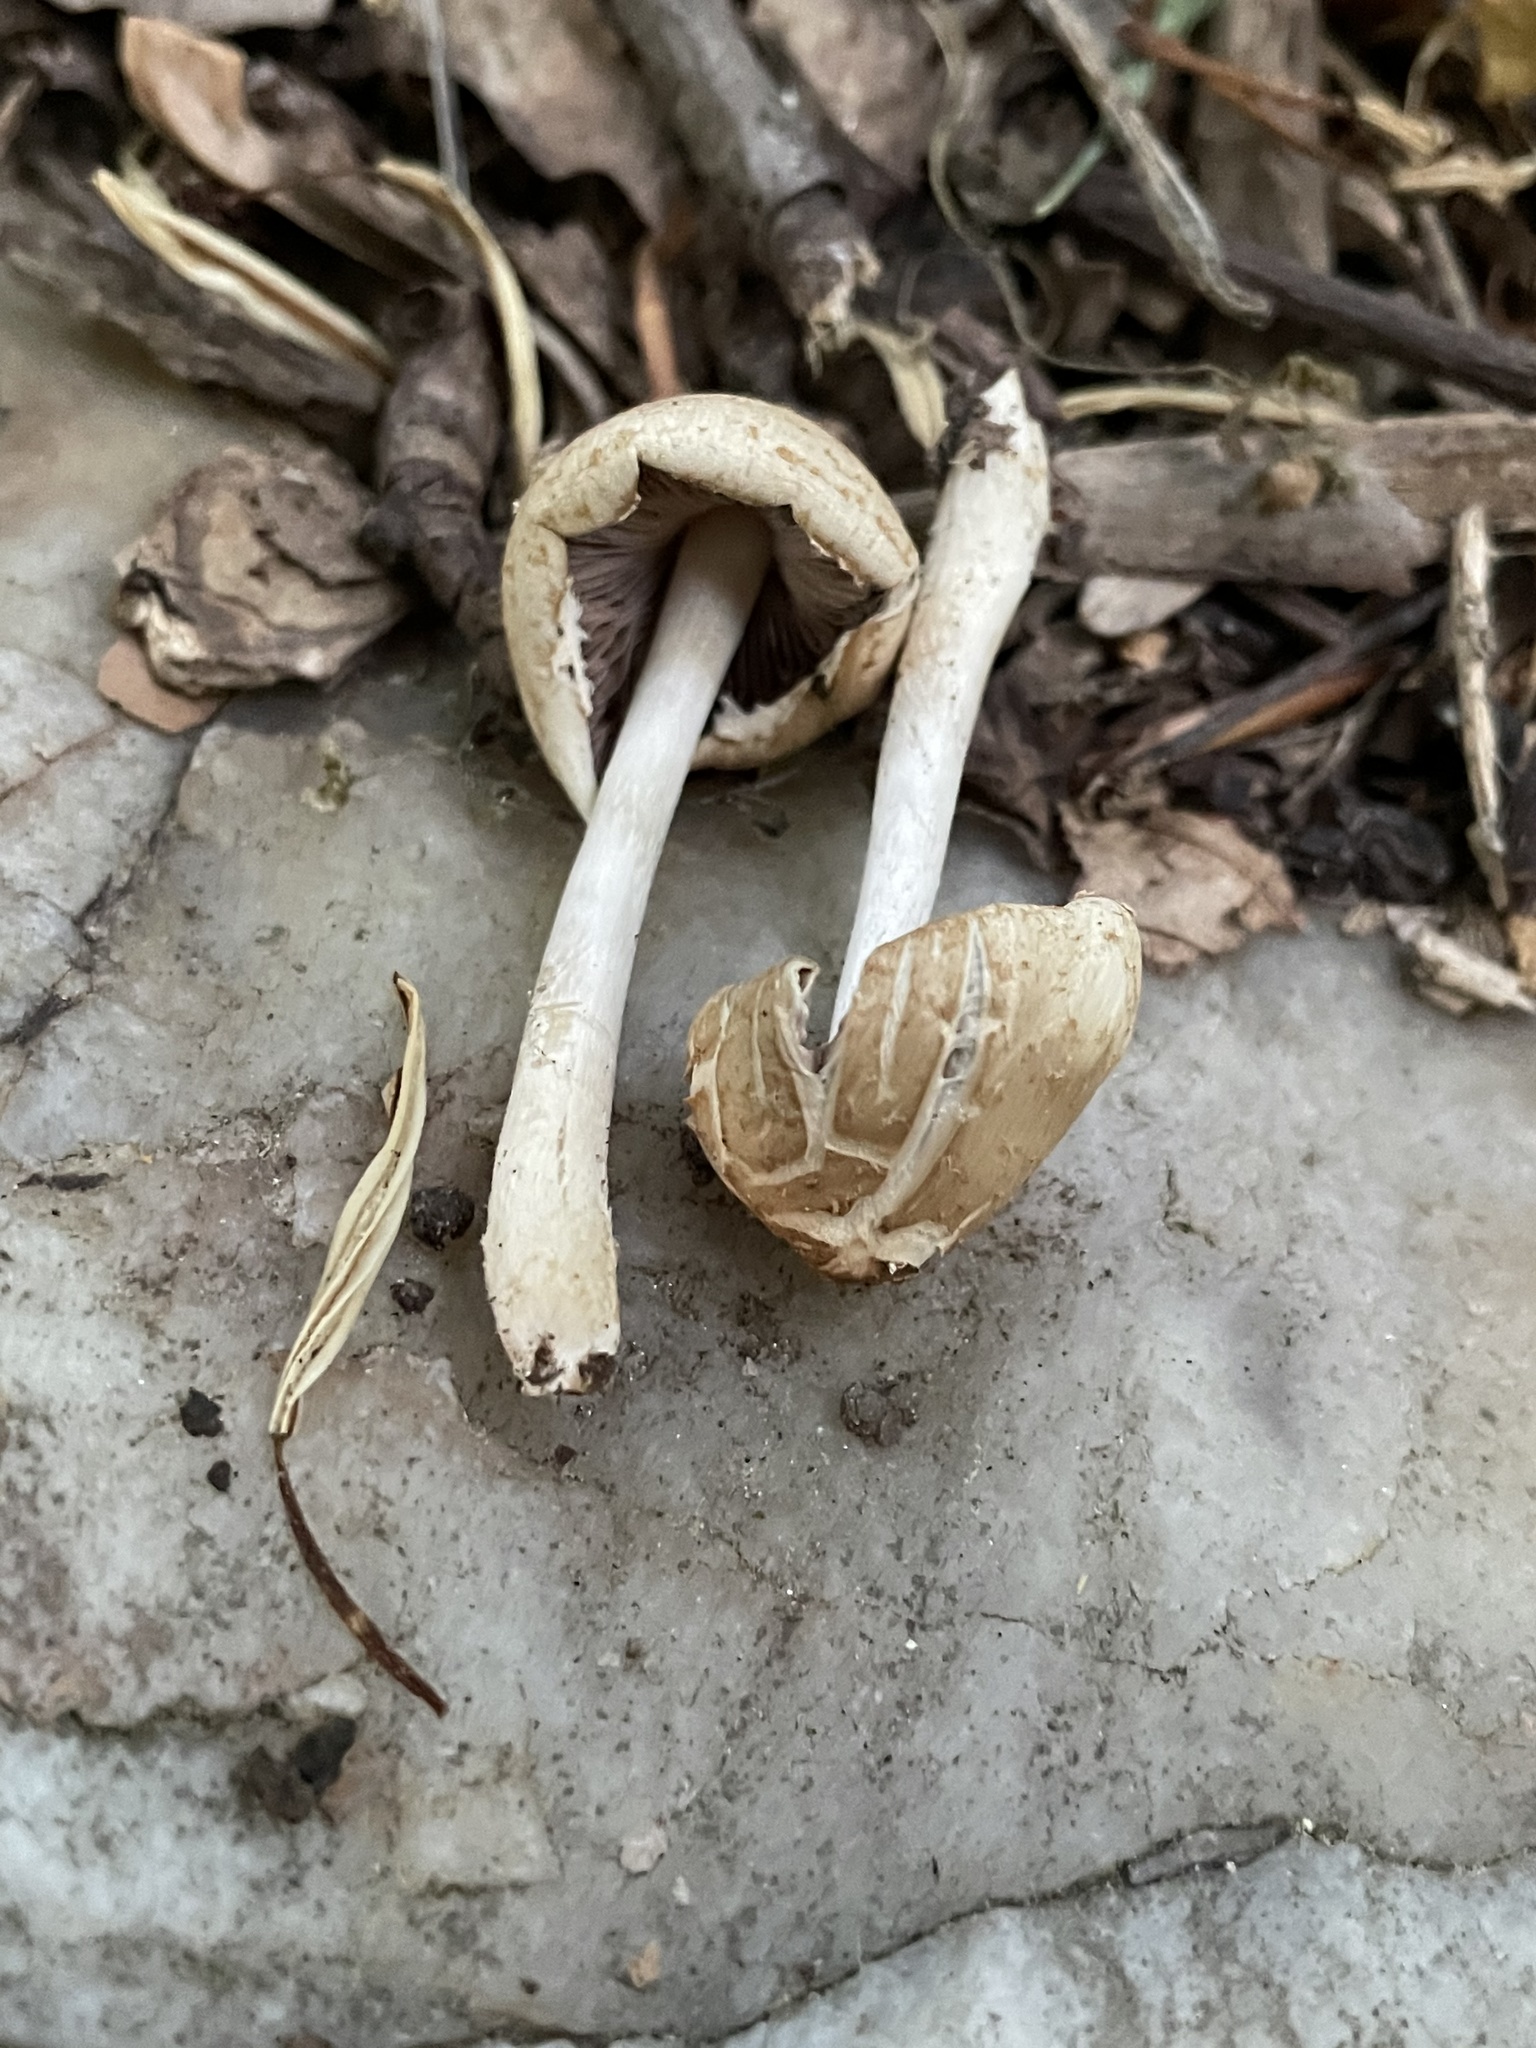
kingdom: Fungi
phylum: Basidiomycota
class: Agaricomycetes
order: Agaricales
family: Strophariaceae
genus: Agrocybe
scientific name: Agrocybe praecox
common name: Spring fieldcap
